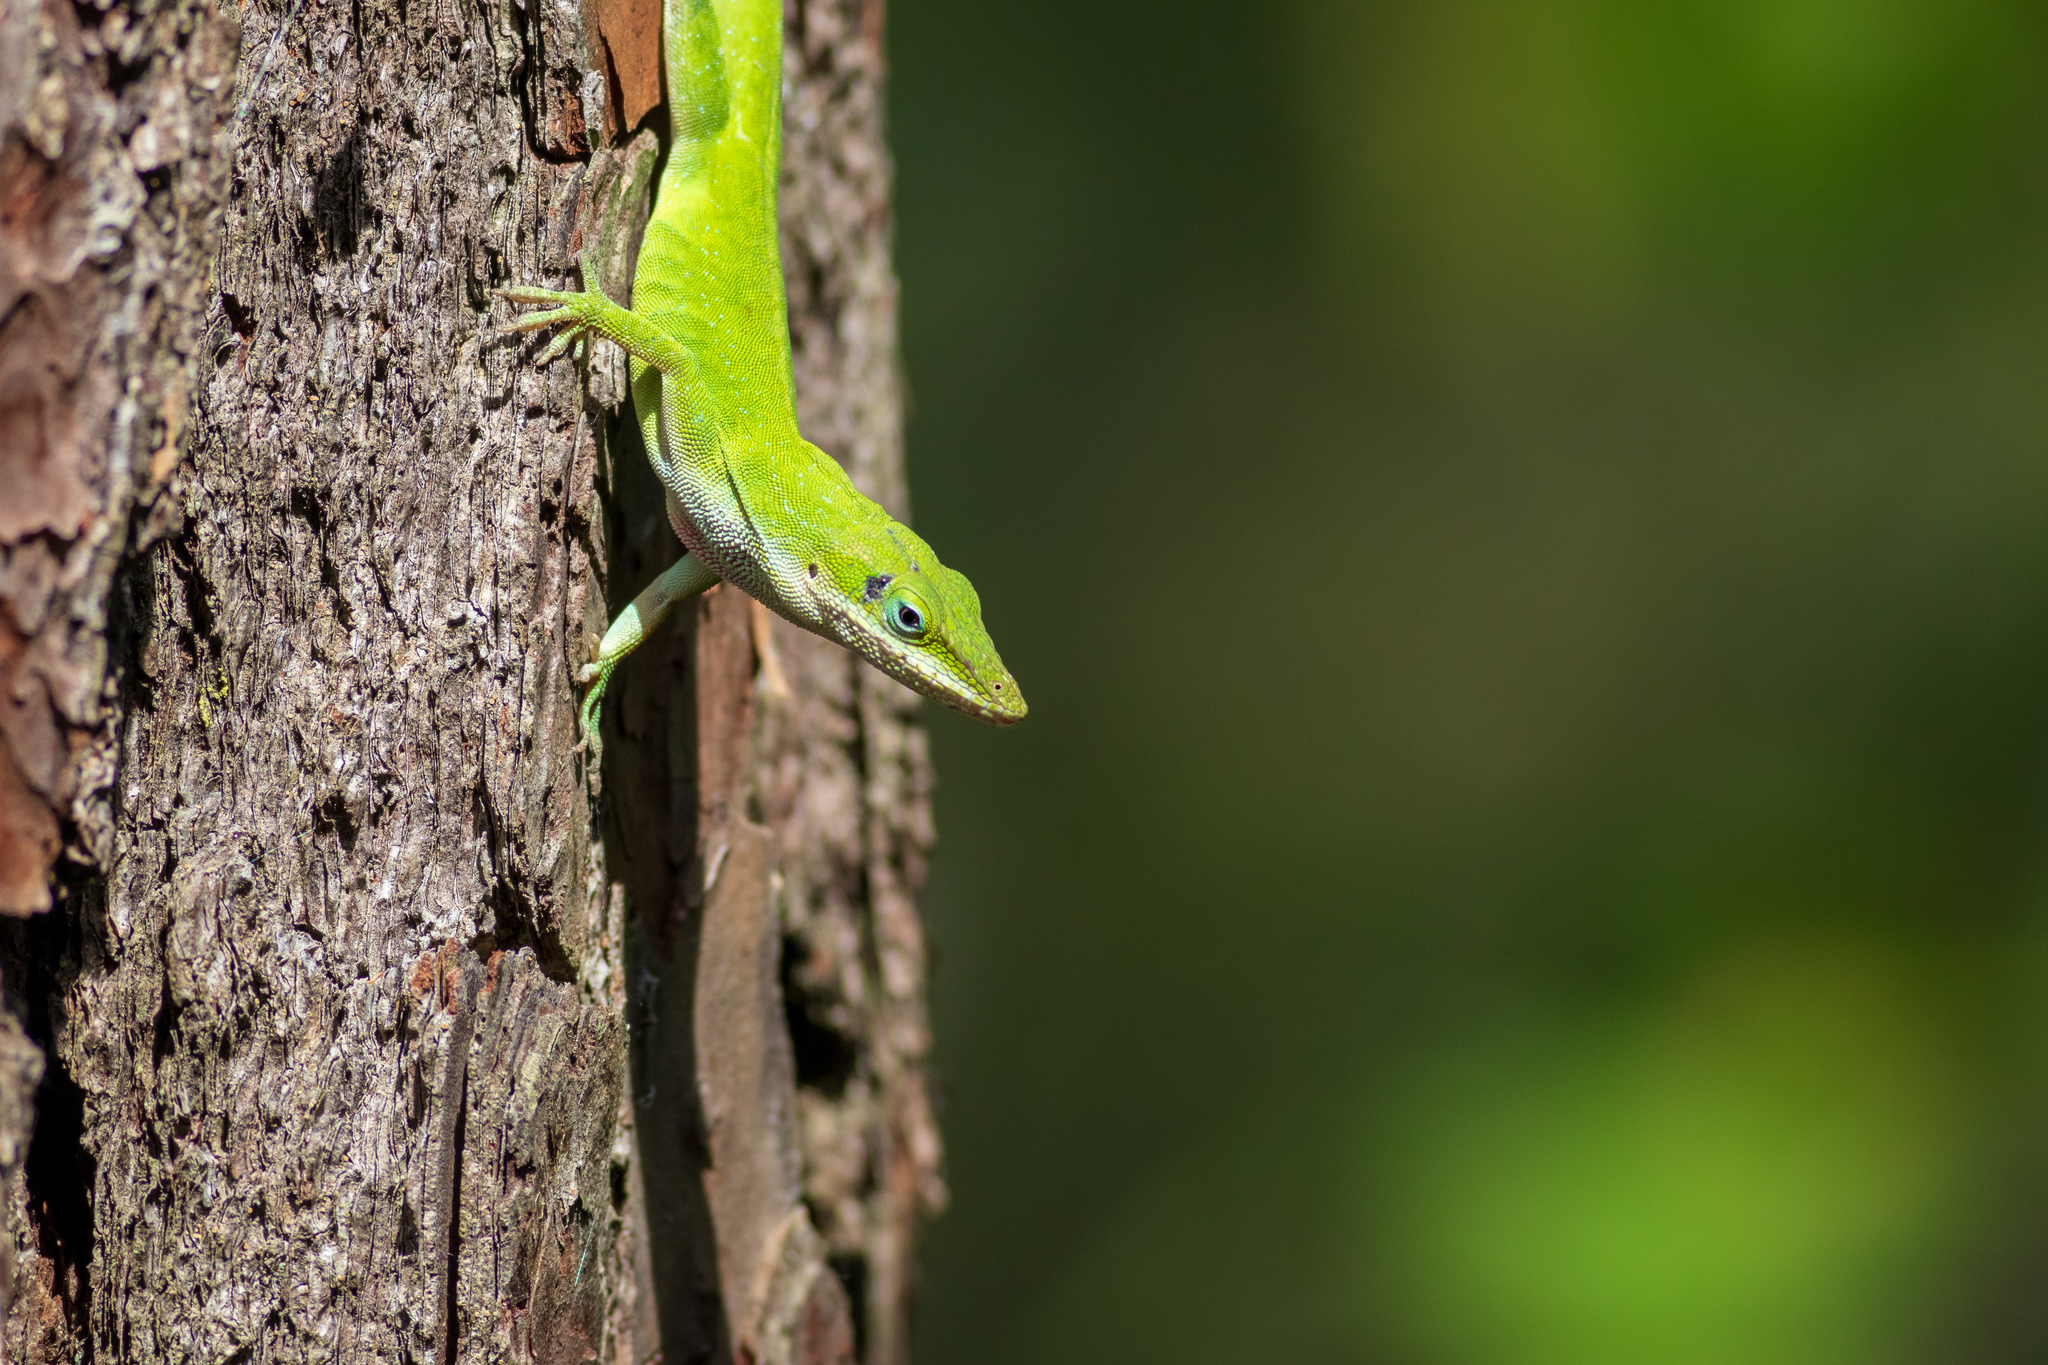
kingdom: Animalia
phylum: Chordata
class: Squamata
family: Dactyloidae
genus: Anolis
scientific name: Anolis carolinensis
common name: Green anole
